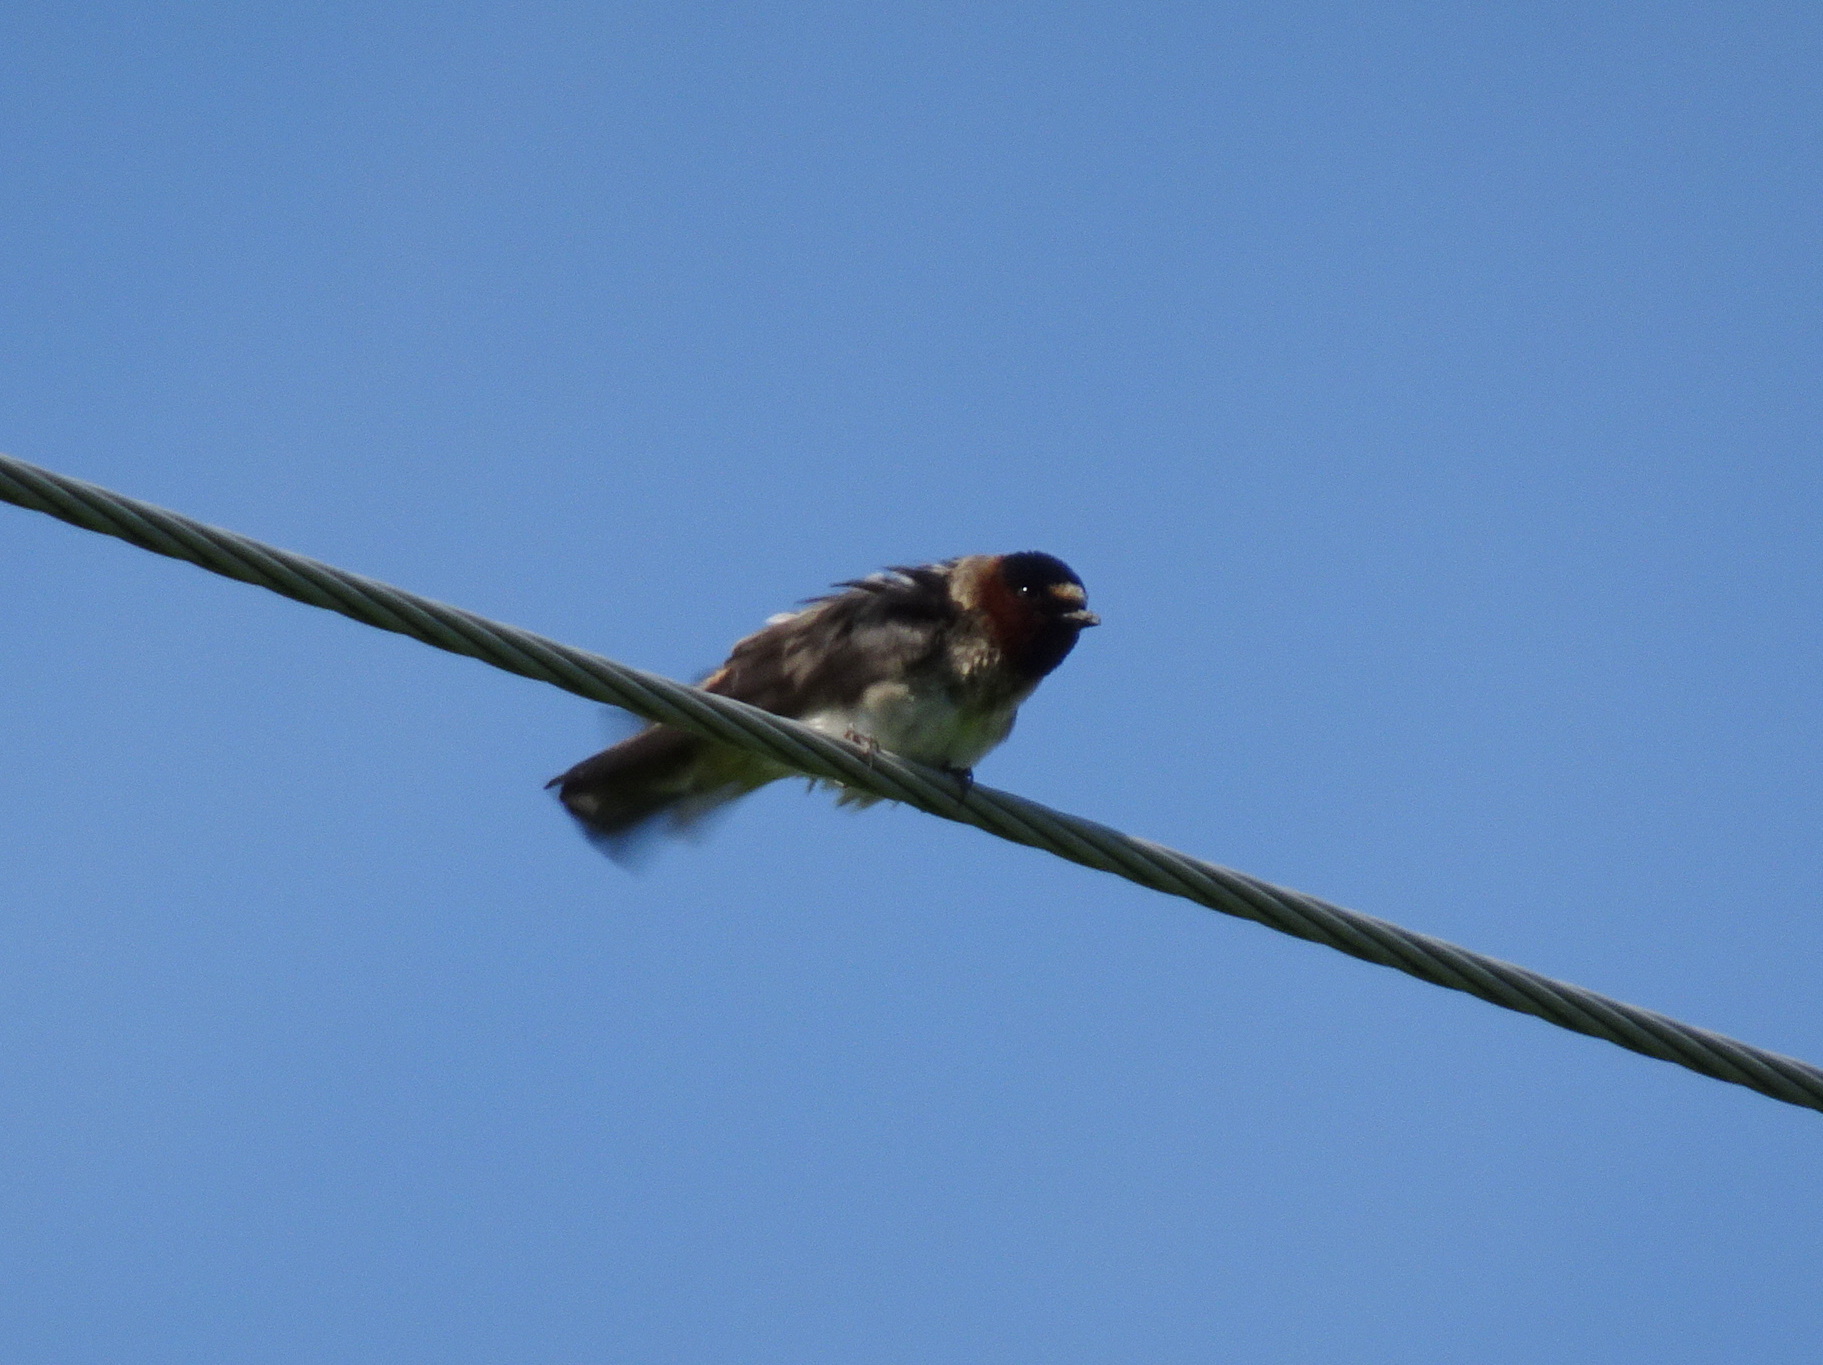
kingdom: Animalia
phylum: Chordata
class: Aves
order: Passeriformes
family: Hirundinidae
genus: Petrochelidon
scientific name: Petrochelidon pyrrhonota
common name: American cliff swallow
